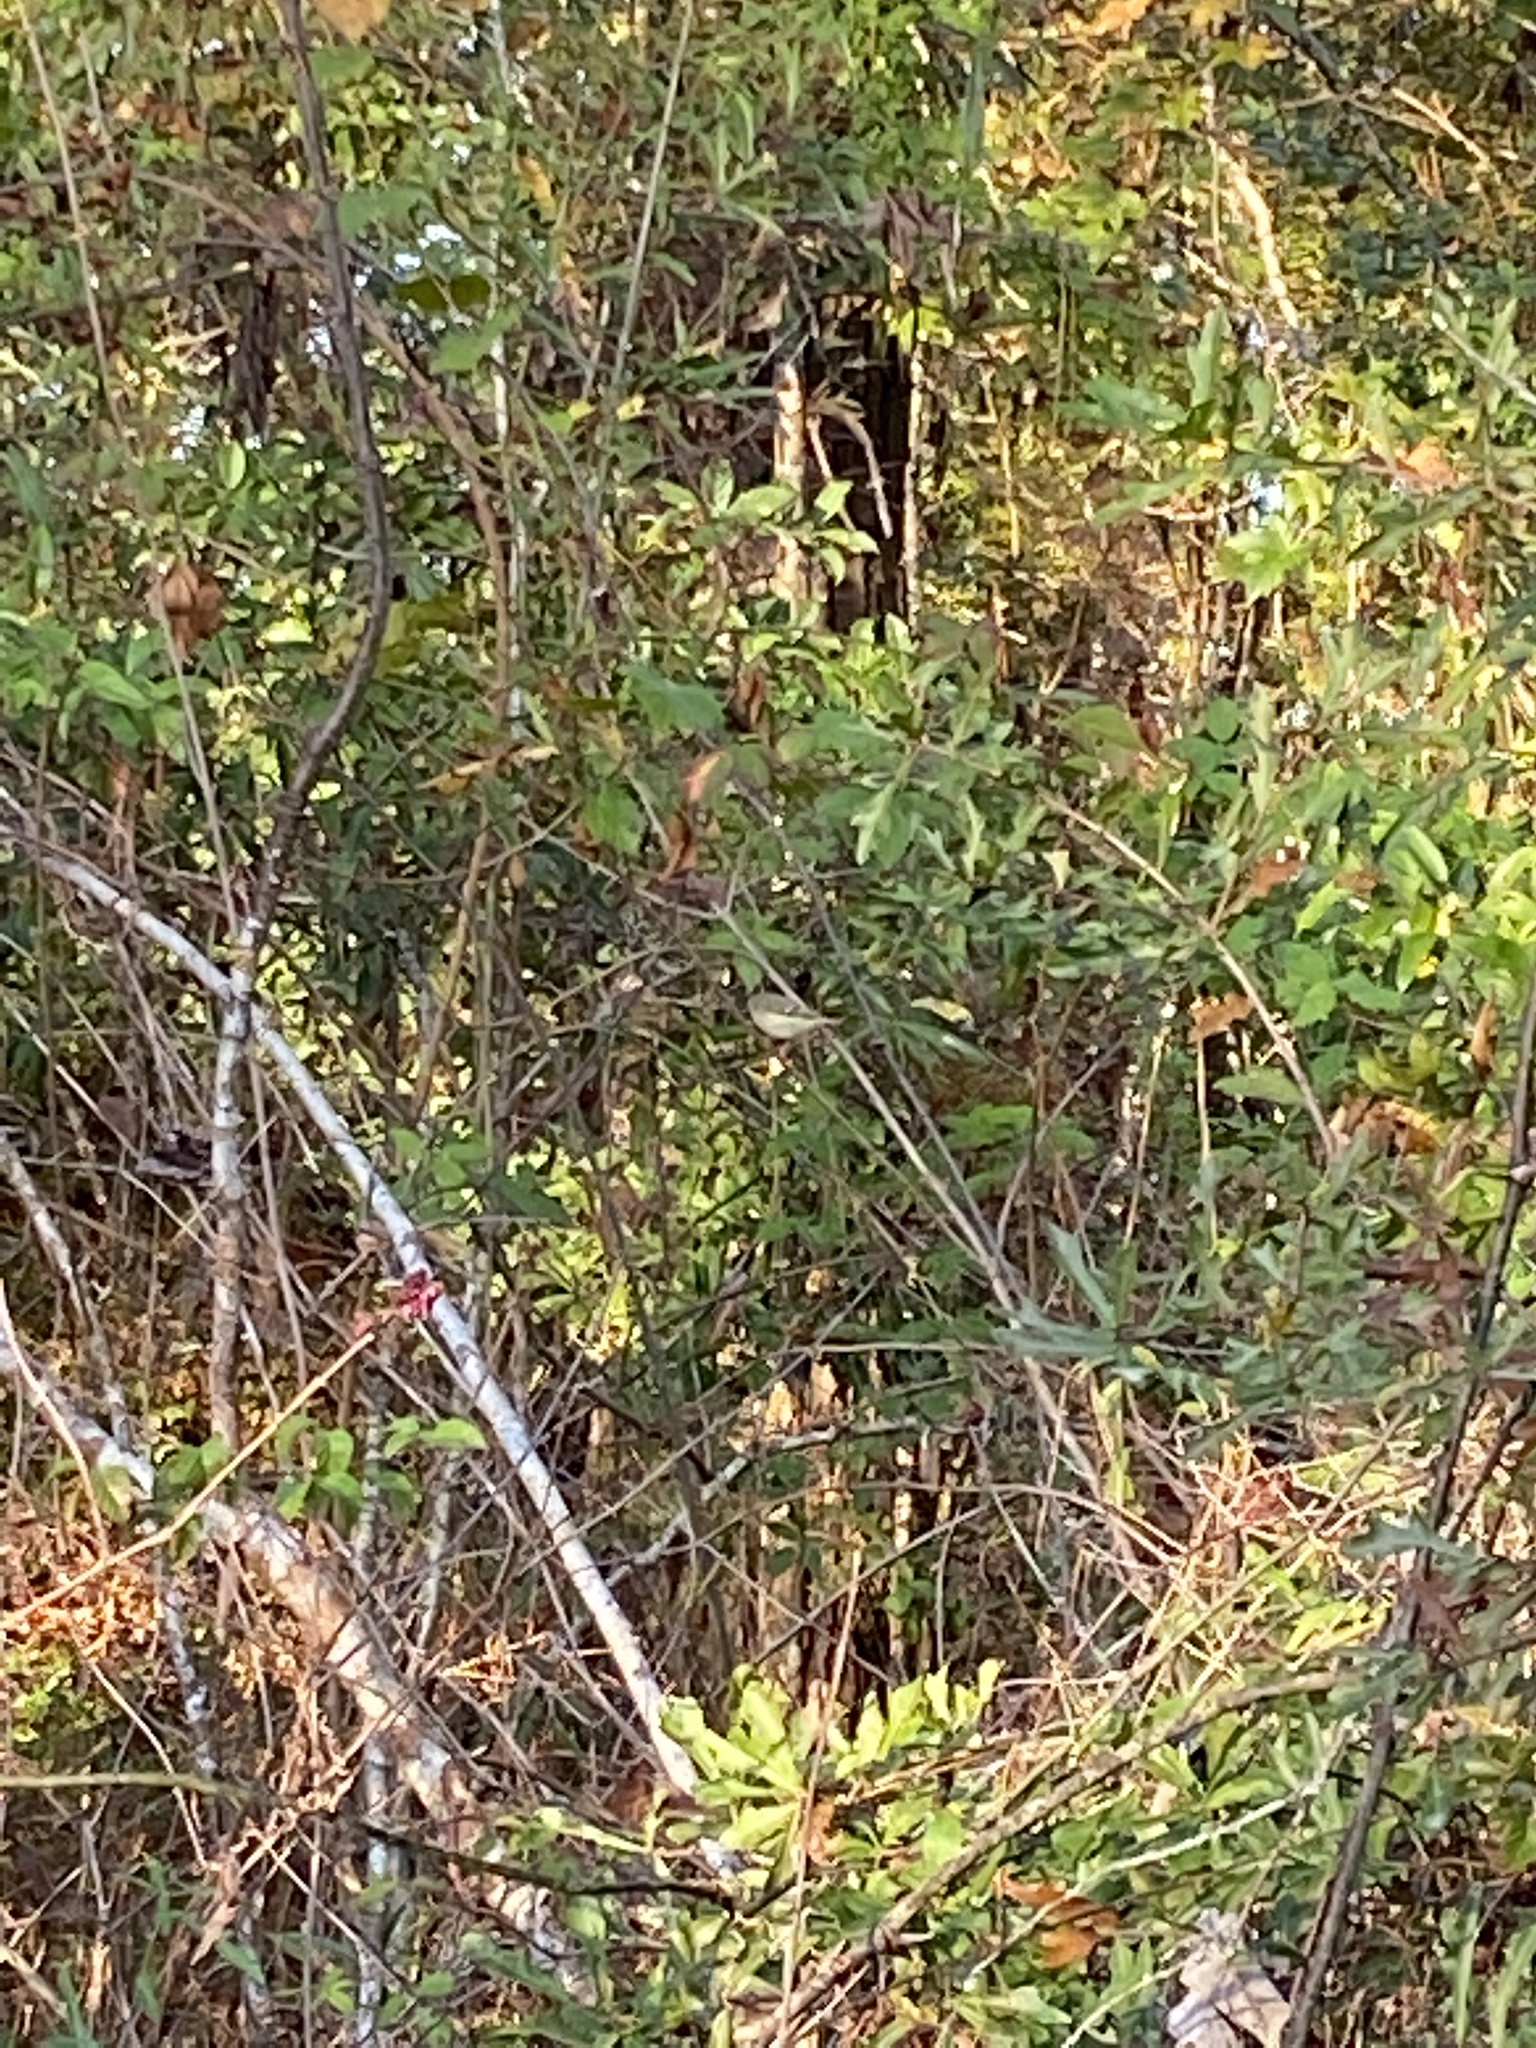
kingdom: Animalia
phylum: Chordata
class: Aves
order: Passeriformes
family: Regulidae
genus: Regulus
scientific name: Regulus calendula
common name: Ruby-crowned kinglet
